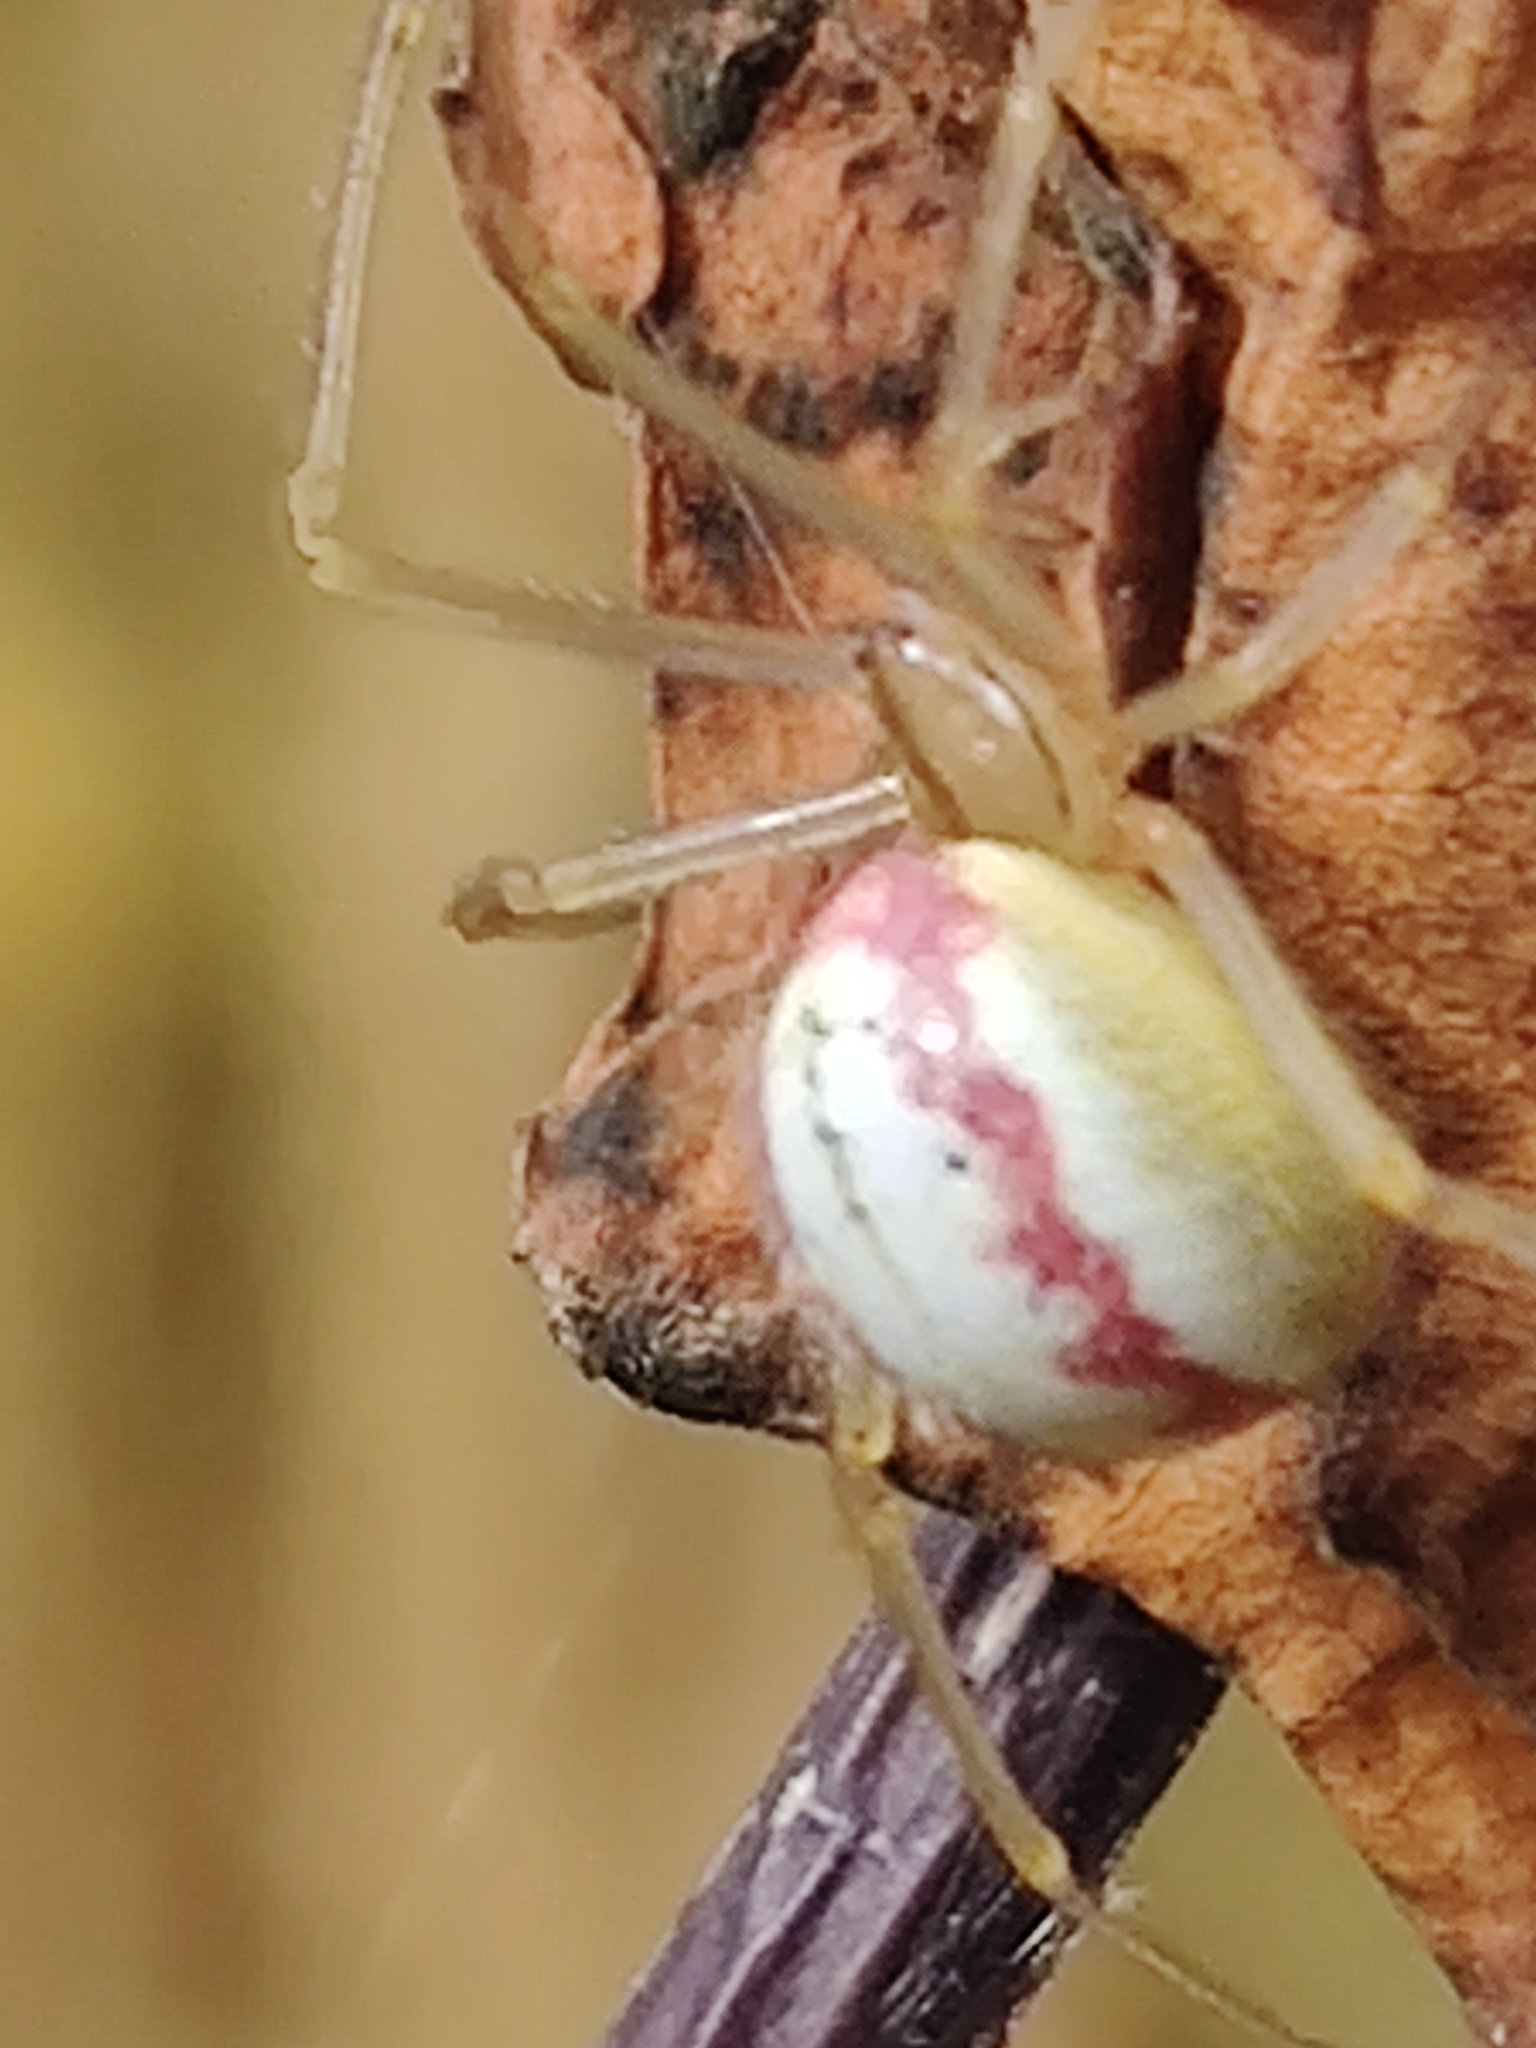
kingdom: Animalia
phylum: Arthropoda
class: Arachnida
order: Araneae
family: Theridiidae
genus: Enoplognatha
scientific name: Enoplognatha ovata
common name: Common candy-striped spider
